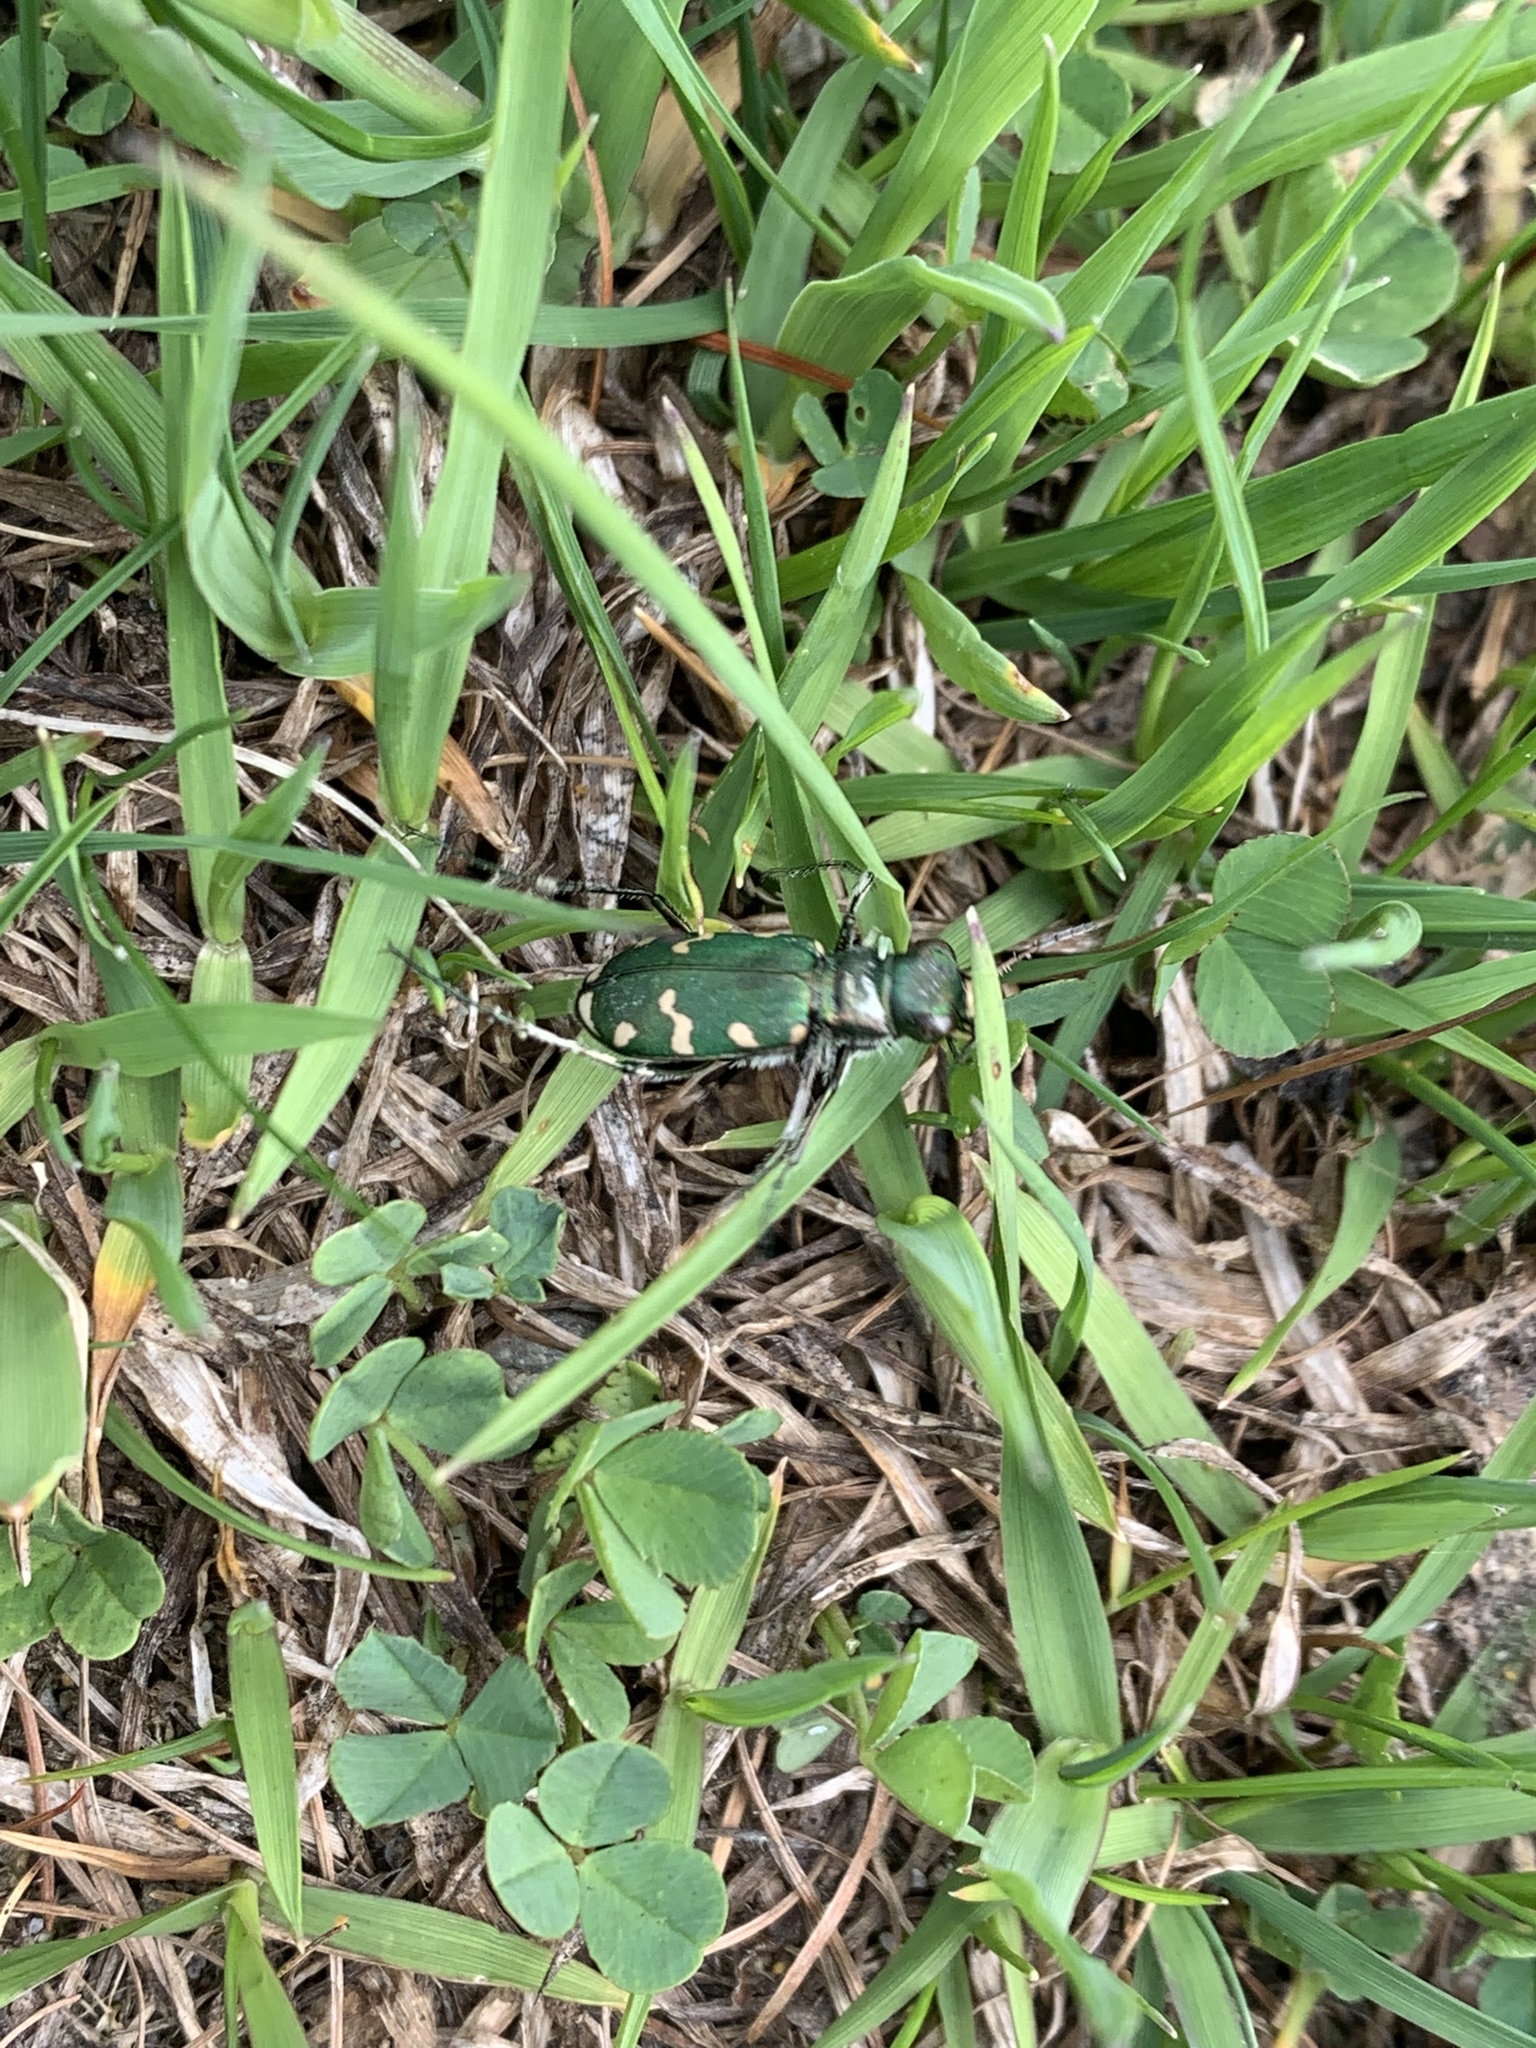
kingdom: Animalia
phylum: Arthropoda
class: Insecta
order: Coleoptera
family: Carabidae
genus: Cicindela
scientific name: Cicindela gallica
